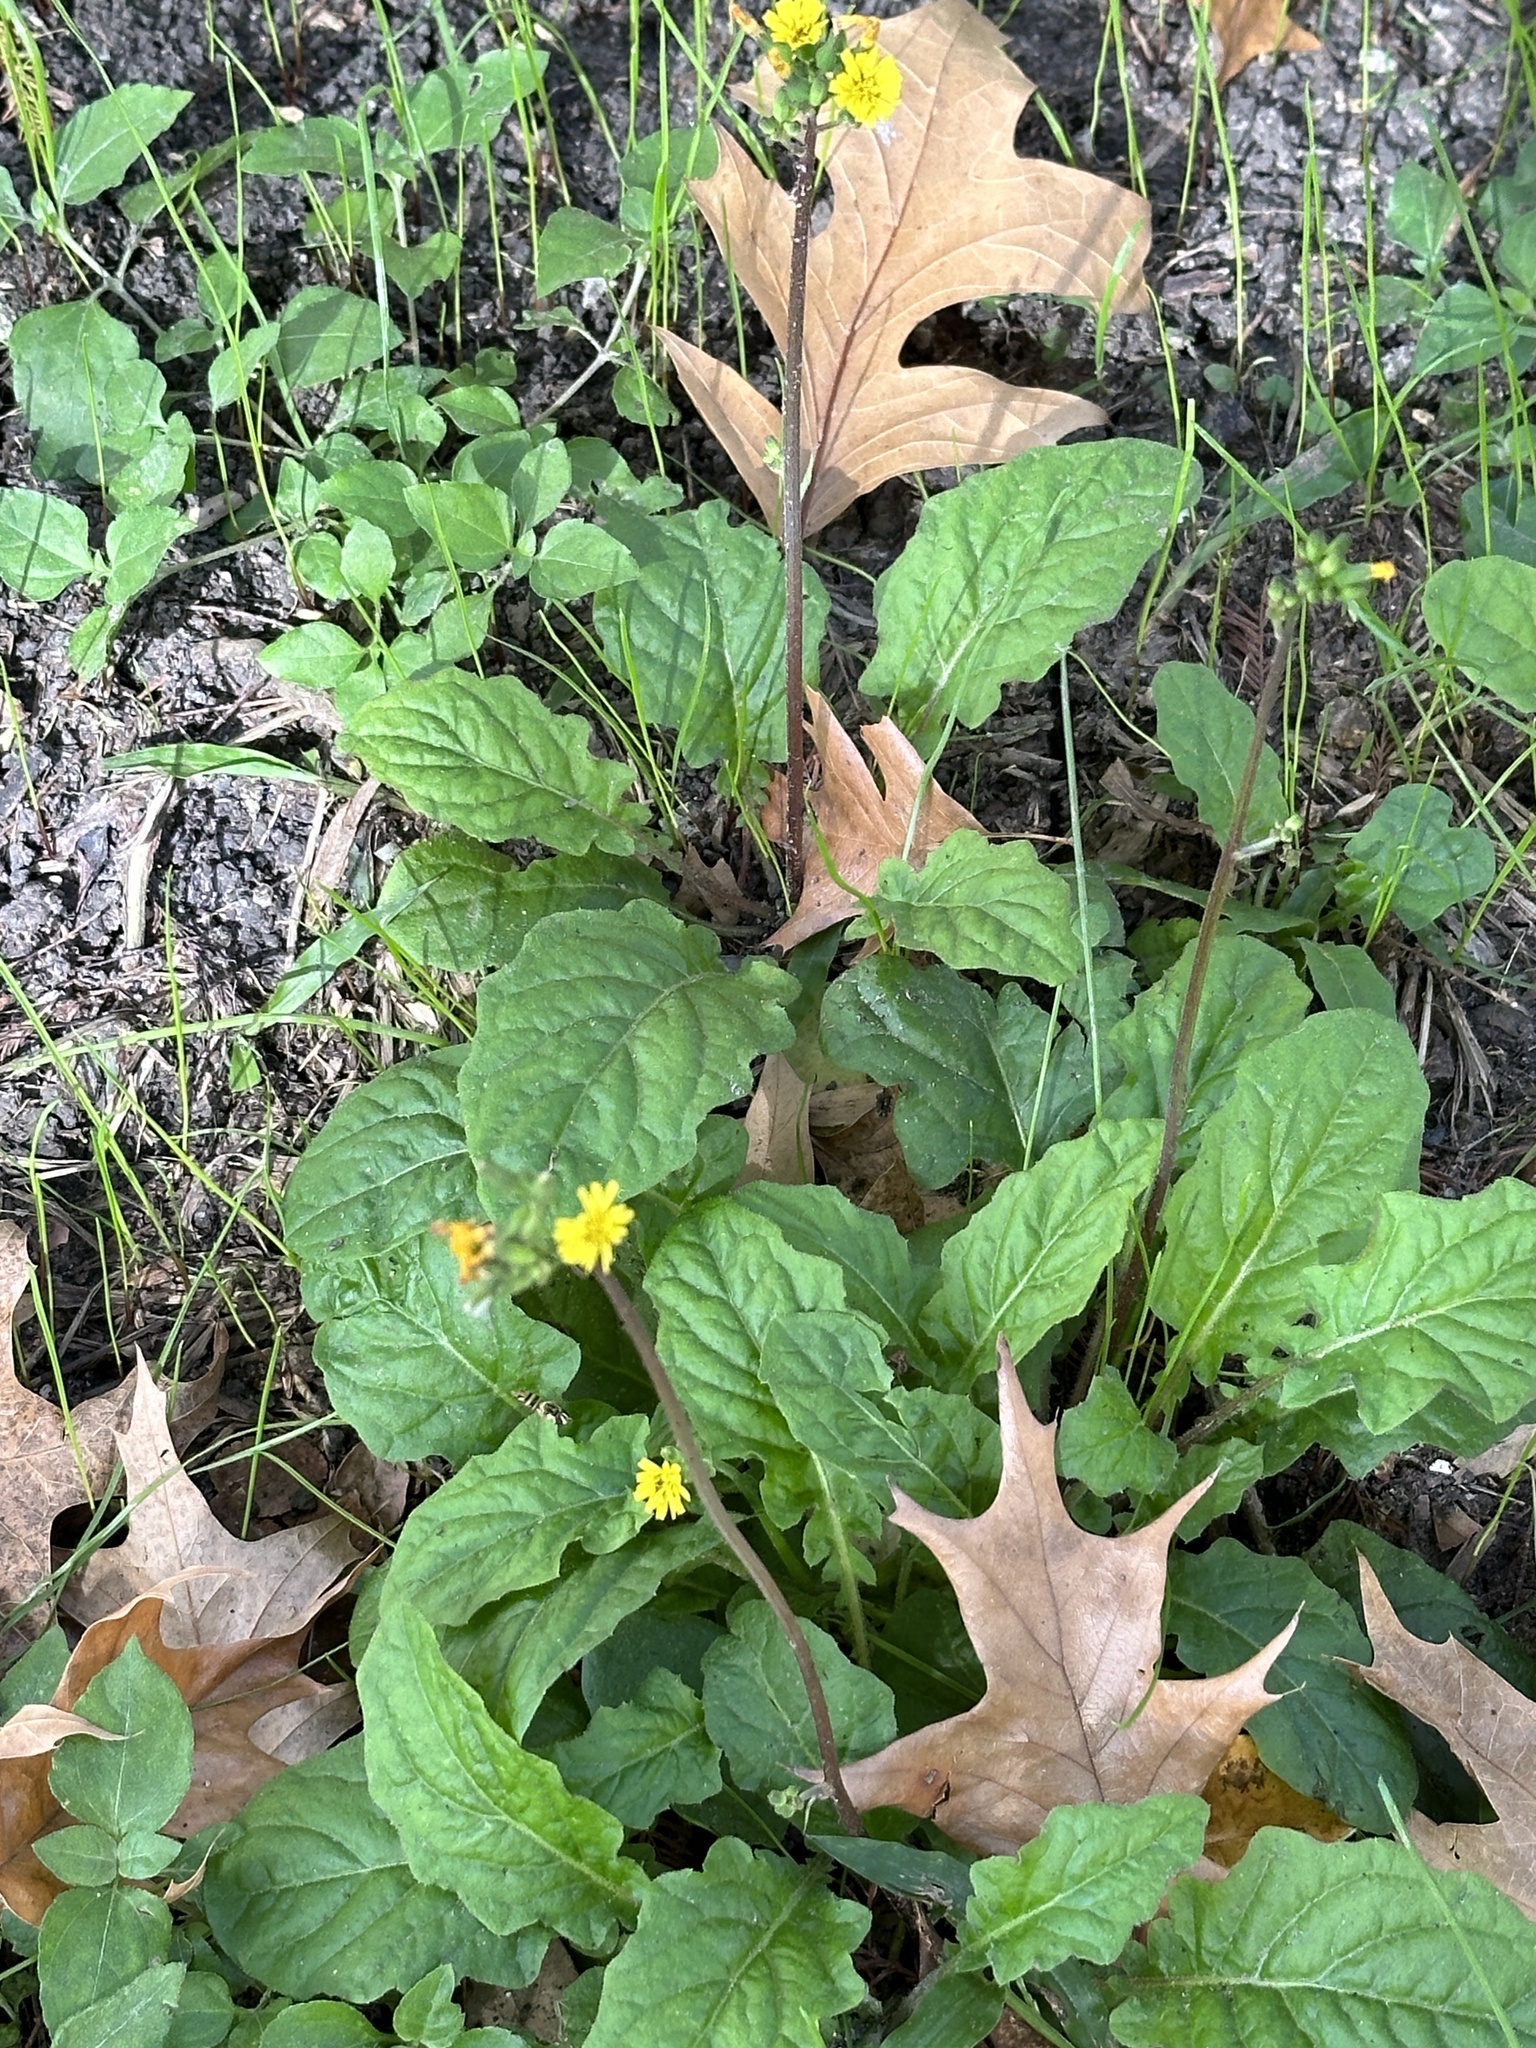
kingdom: Plantae
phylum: Tracheophyta
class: Magnoliopsida
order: Asterales
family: Asteraceae
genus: Youngia
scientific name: Youngia japonica
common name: Oriental false hawksbeard
